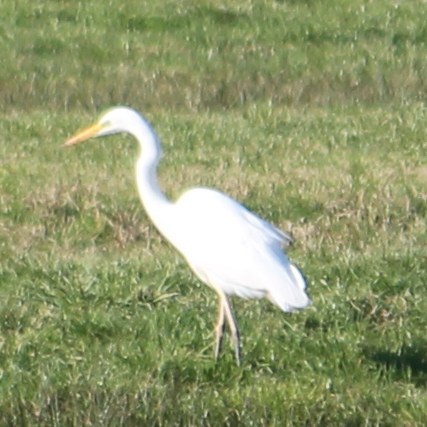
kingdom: Animalia
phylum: Chordata
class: Aves
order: Pelecaniformes
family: Ardeidae
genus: Ardea
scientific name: Ardea alba
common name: Great egret
